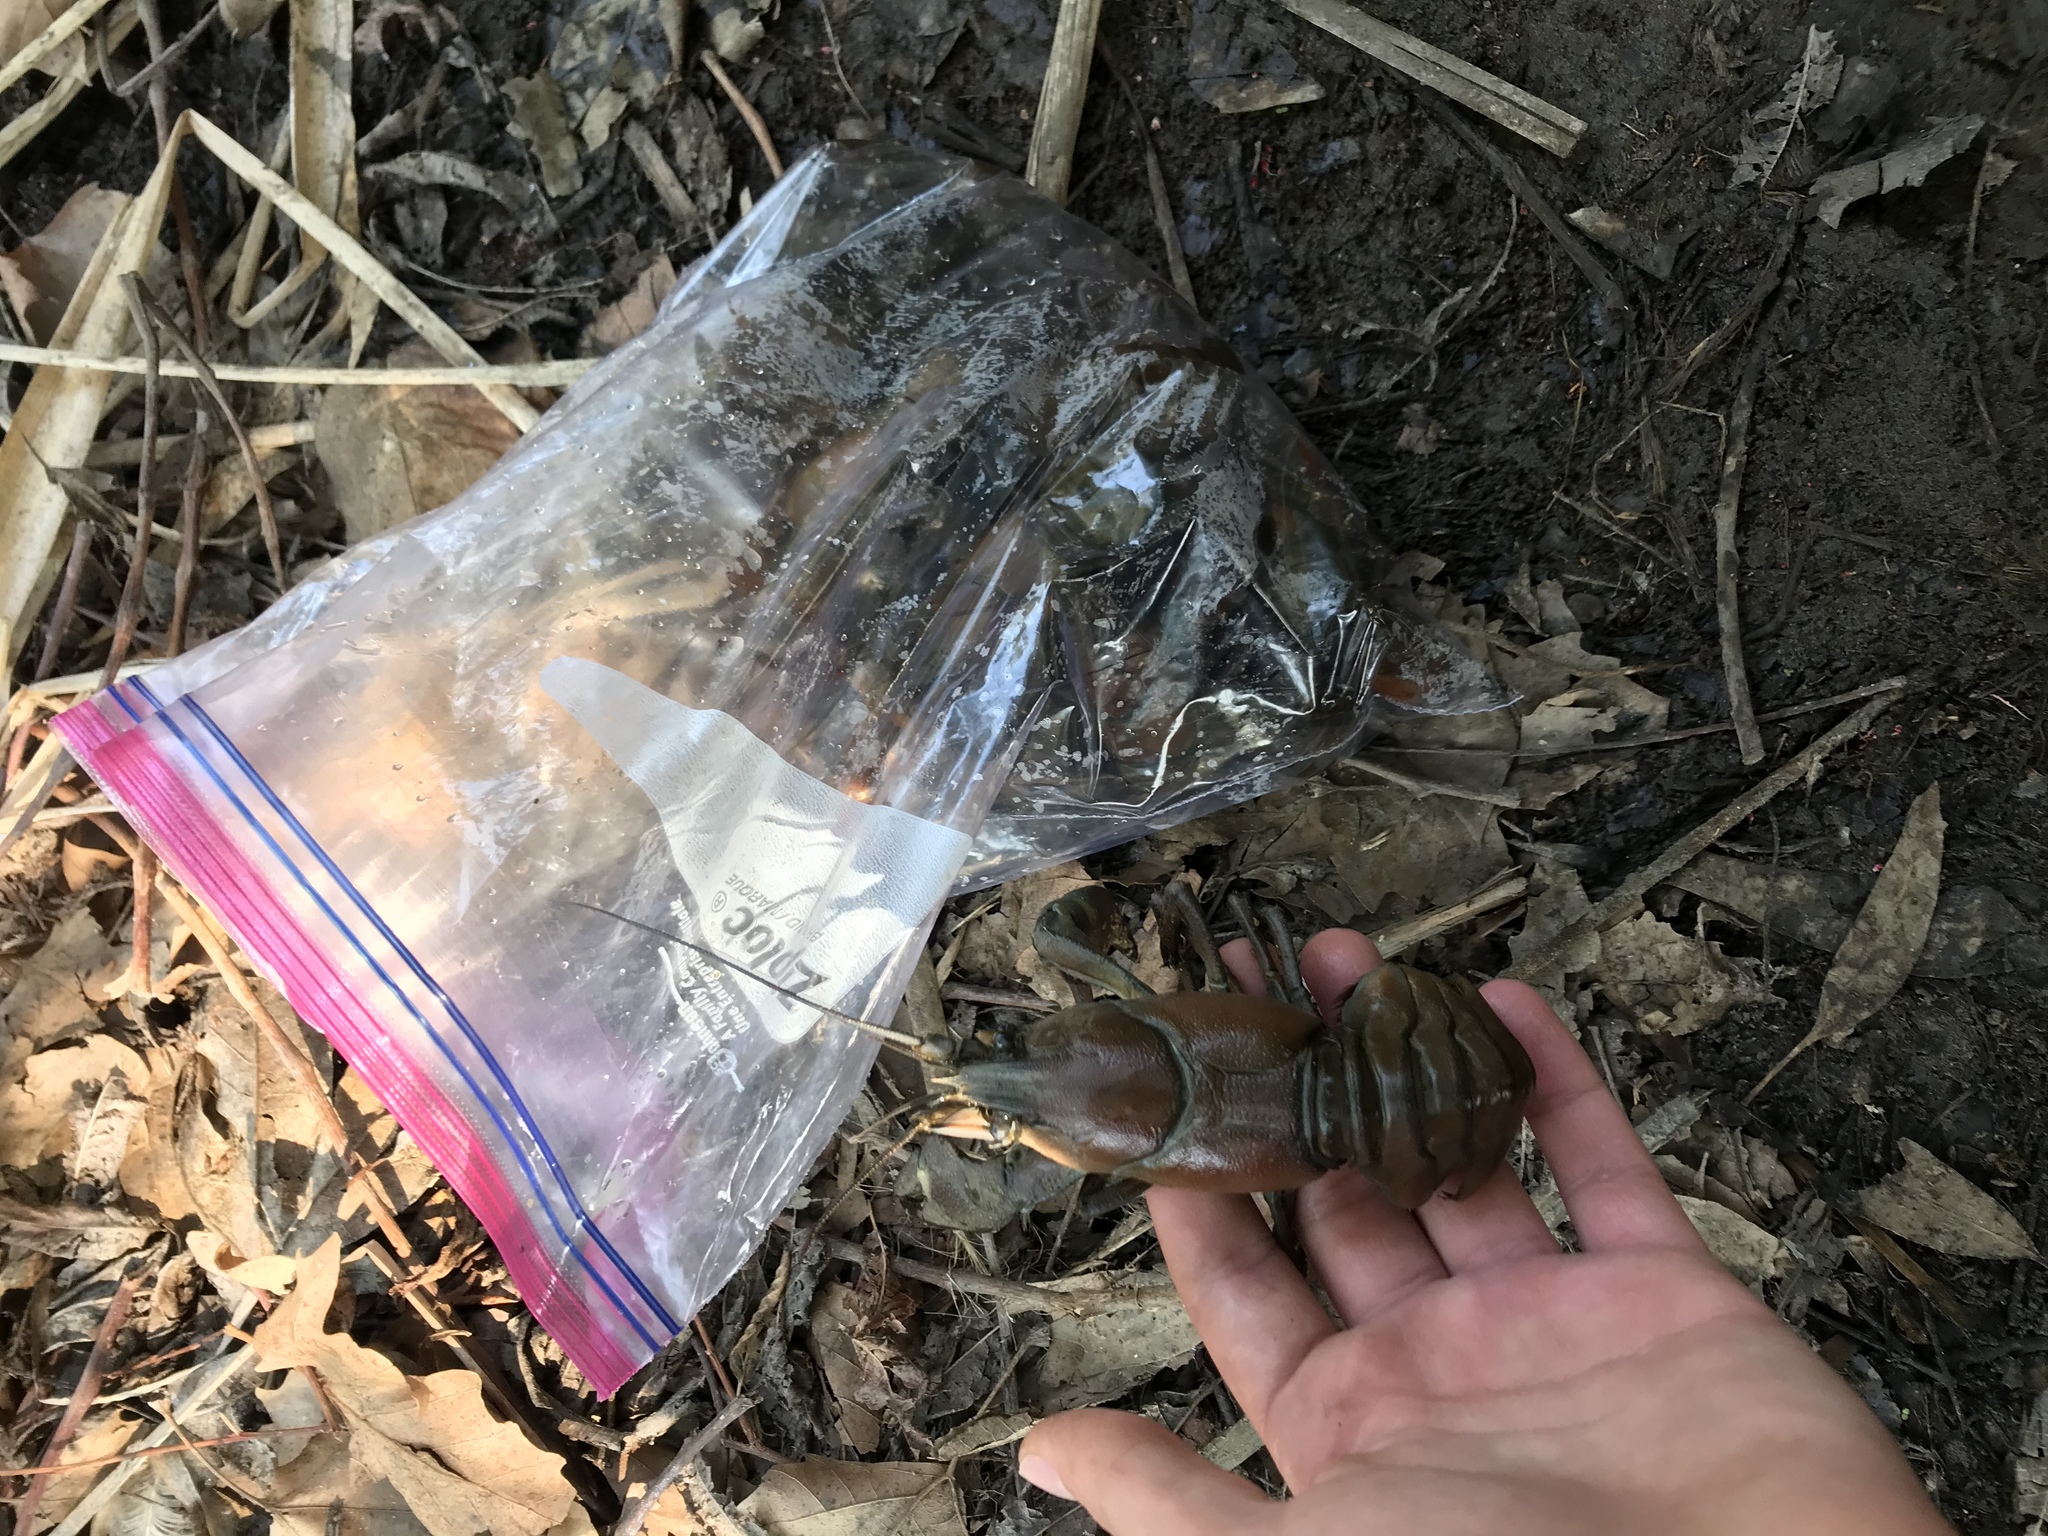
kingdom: Animalia
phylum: Arthropoda
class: Malacostraca
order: Decapoda
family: Astacidae
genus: Pacifastacus
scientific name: Pacifastacus leniusculus
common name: Signal crayfish
